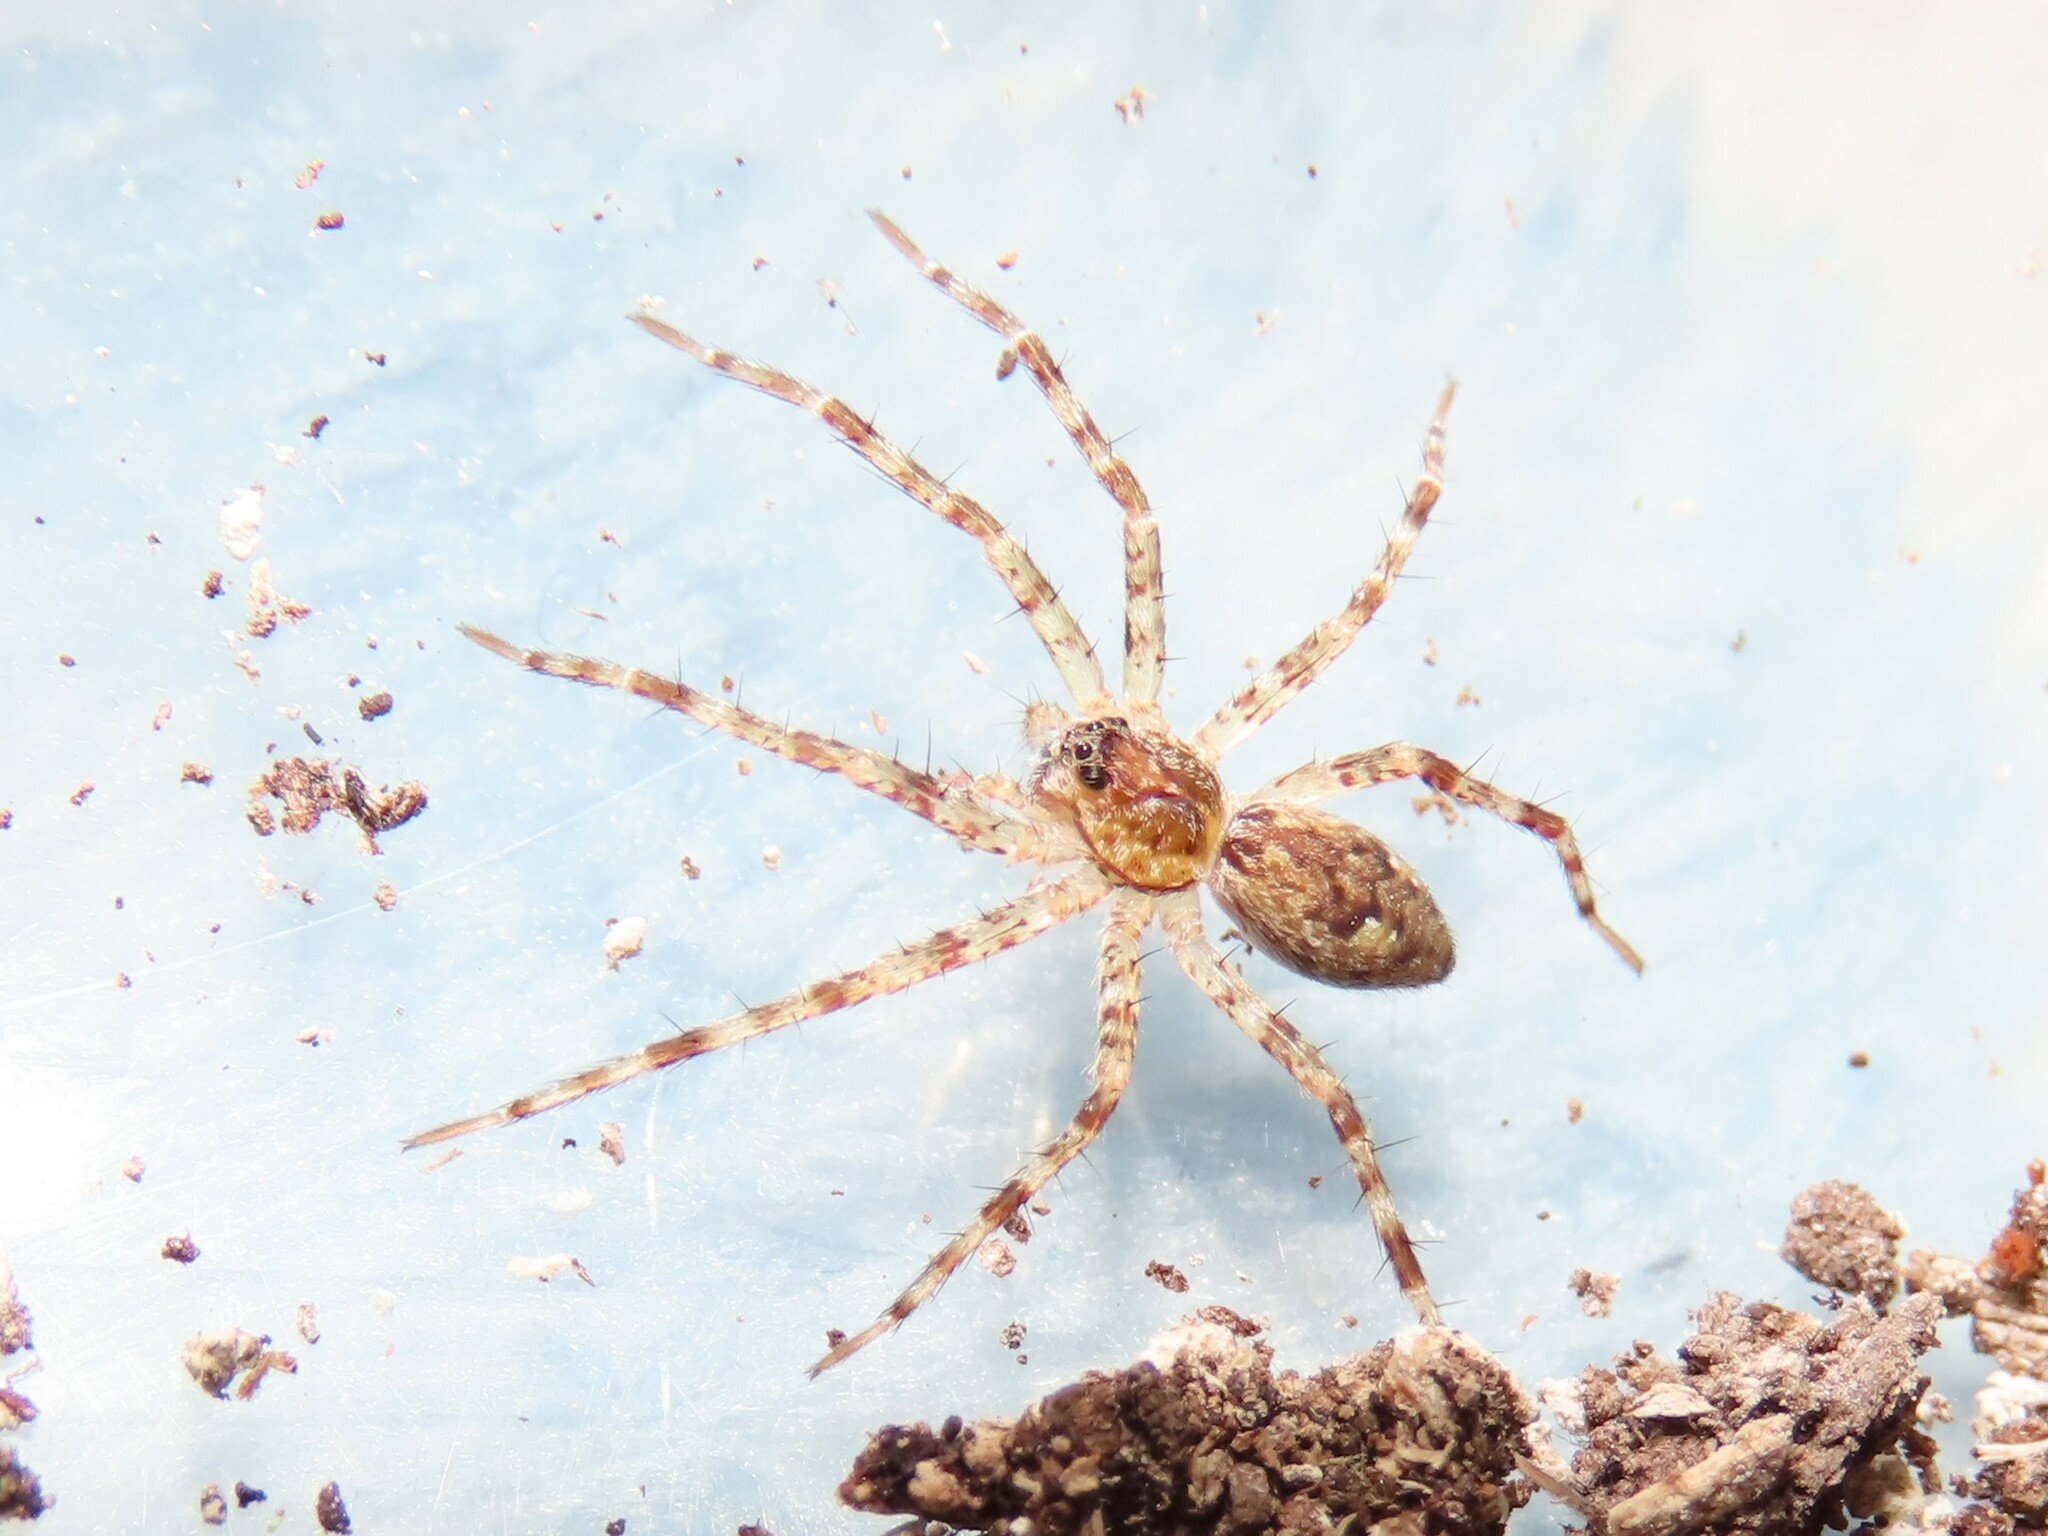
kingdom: Animalia
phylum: Arthropoda
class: Arachnida
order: Araneae
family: Pisauridae
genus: Dolomedes
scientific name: Dolomedes tenebrosus
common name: Dark fishing spider
